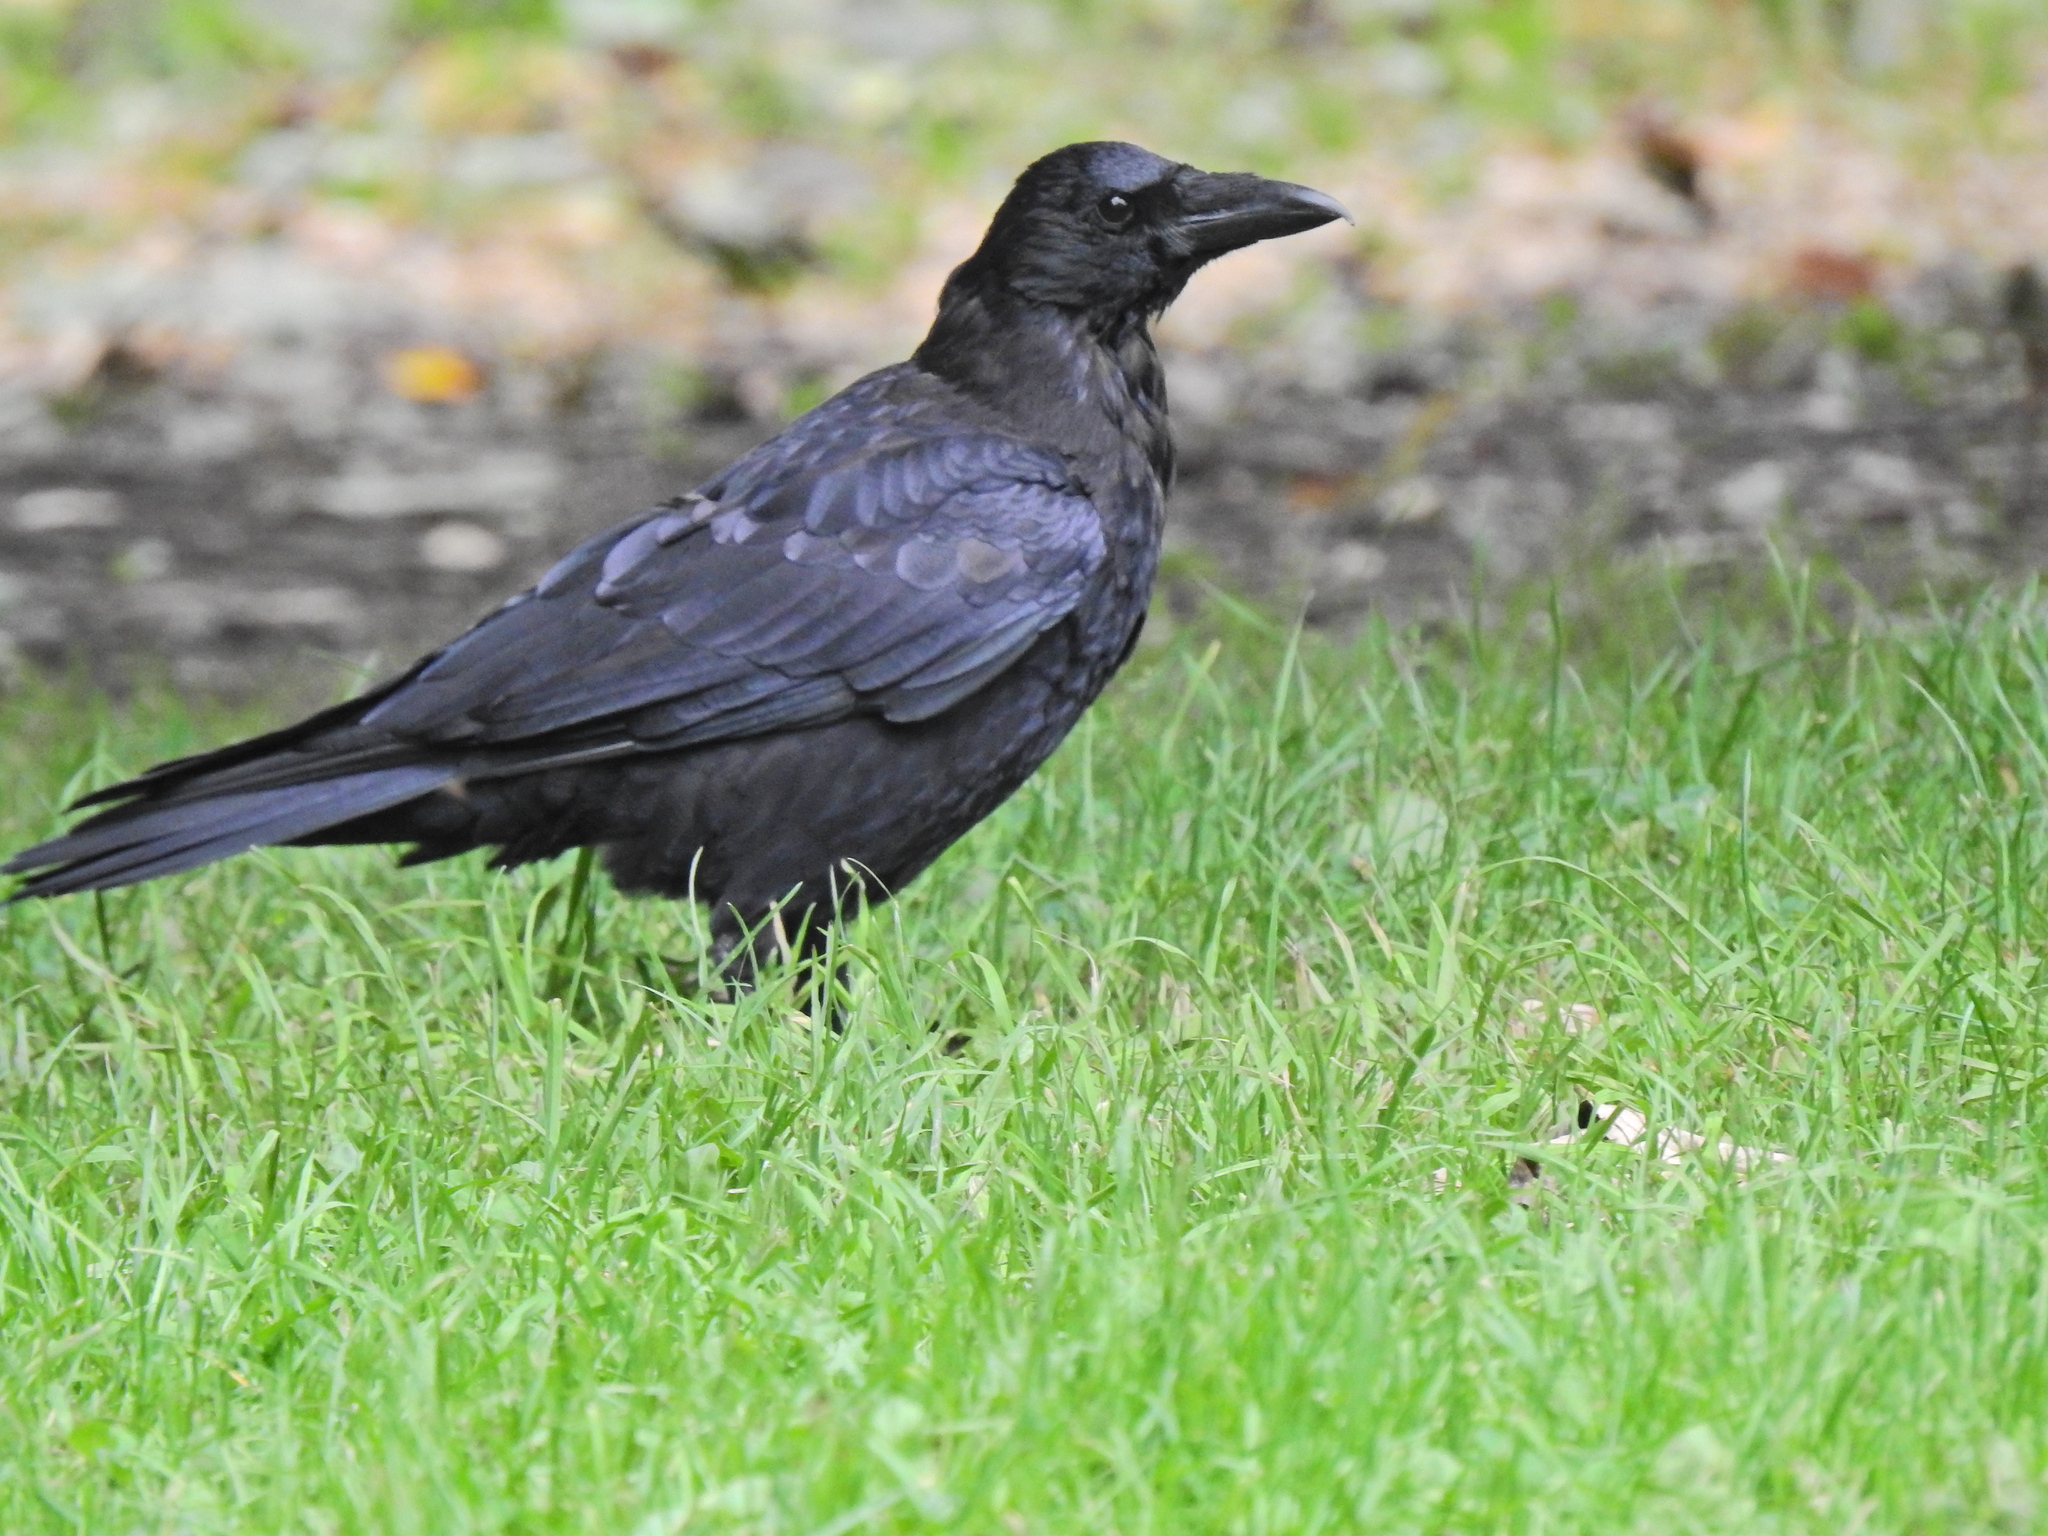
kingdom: Animalia
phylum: Chordata
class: Aves
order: Passeriformes
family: Corvidae
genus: Corvus
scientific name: Corvus corone
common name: Carrion crow
